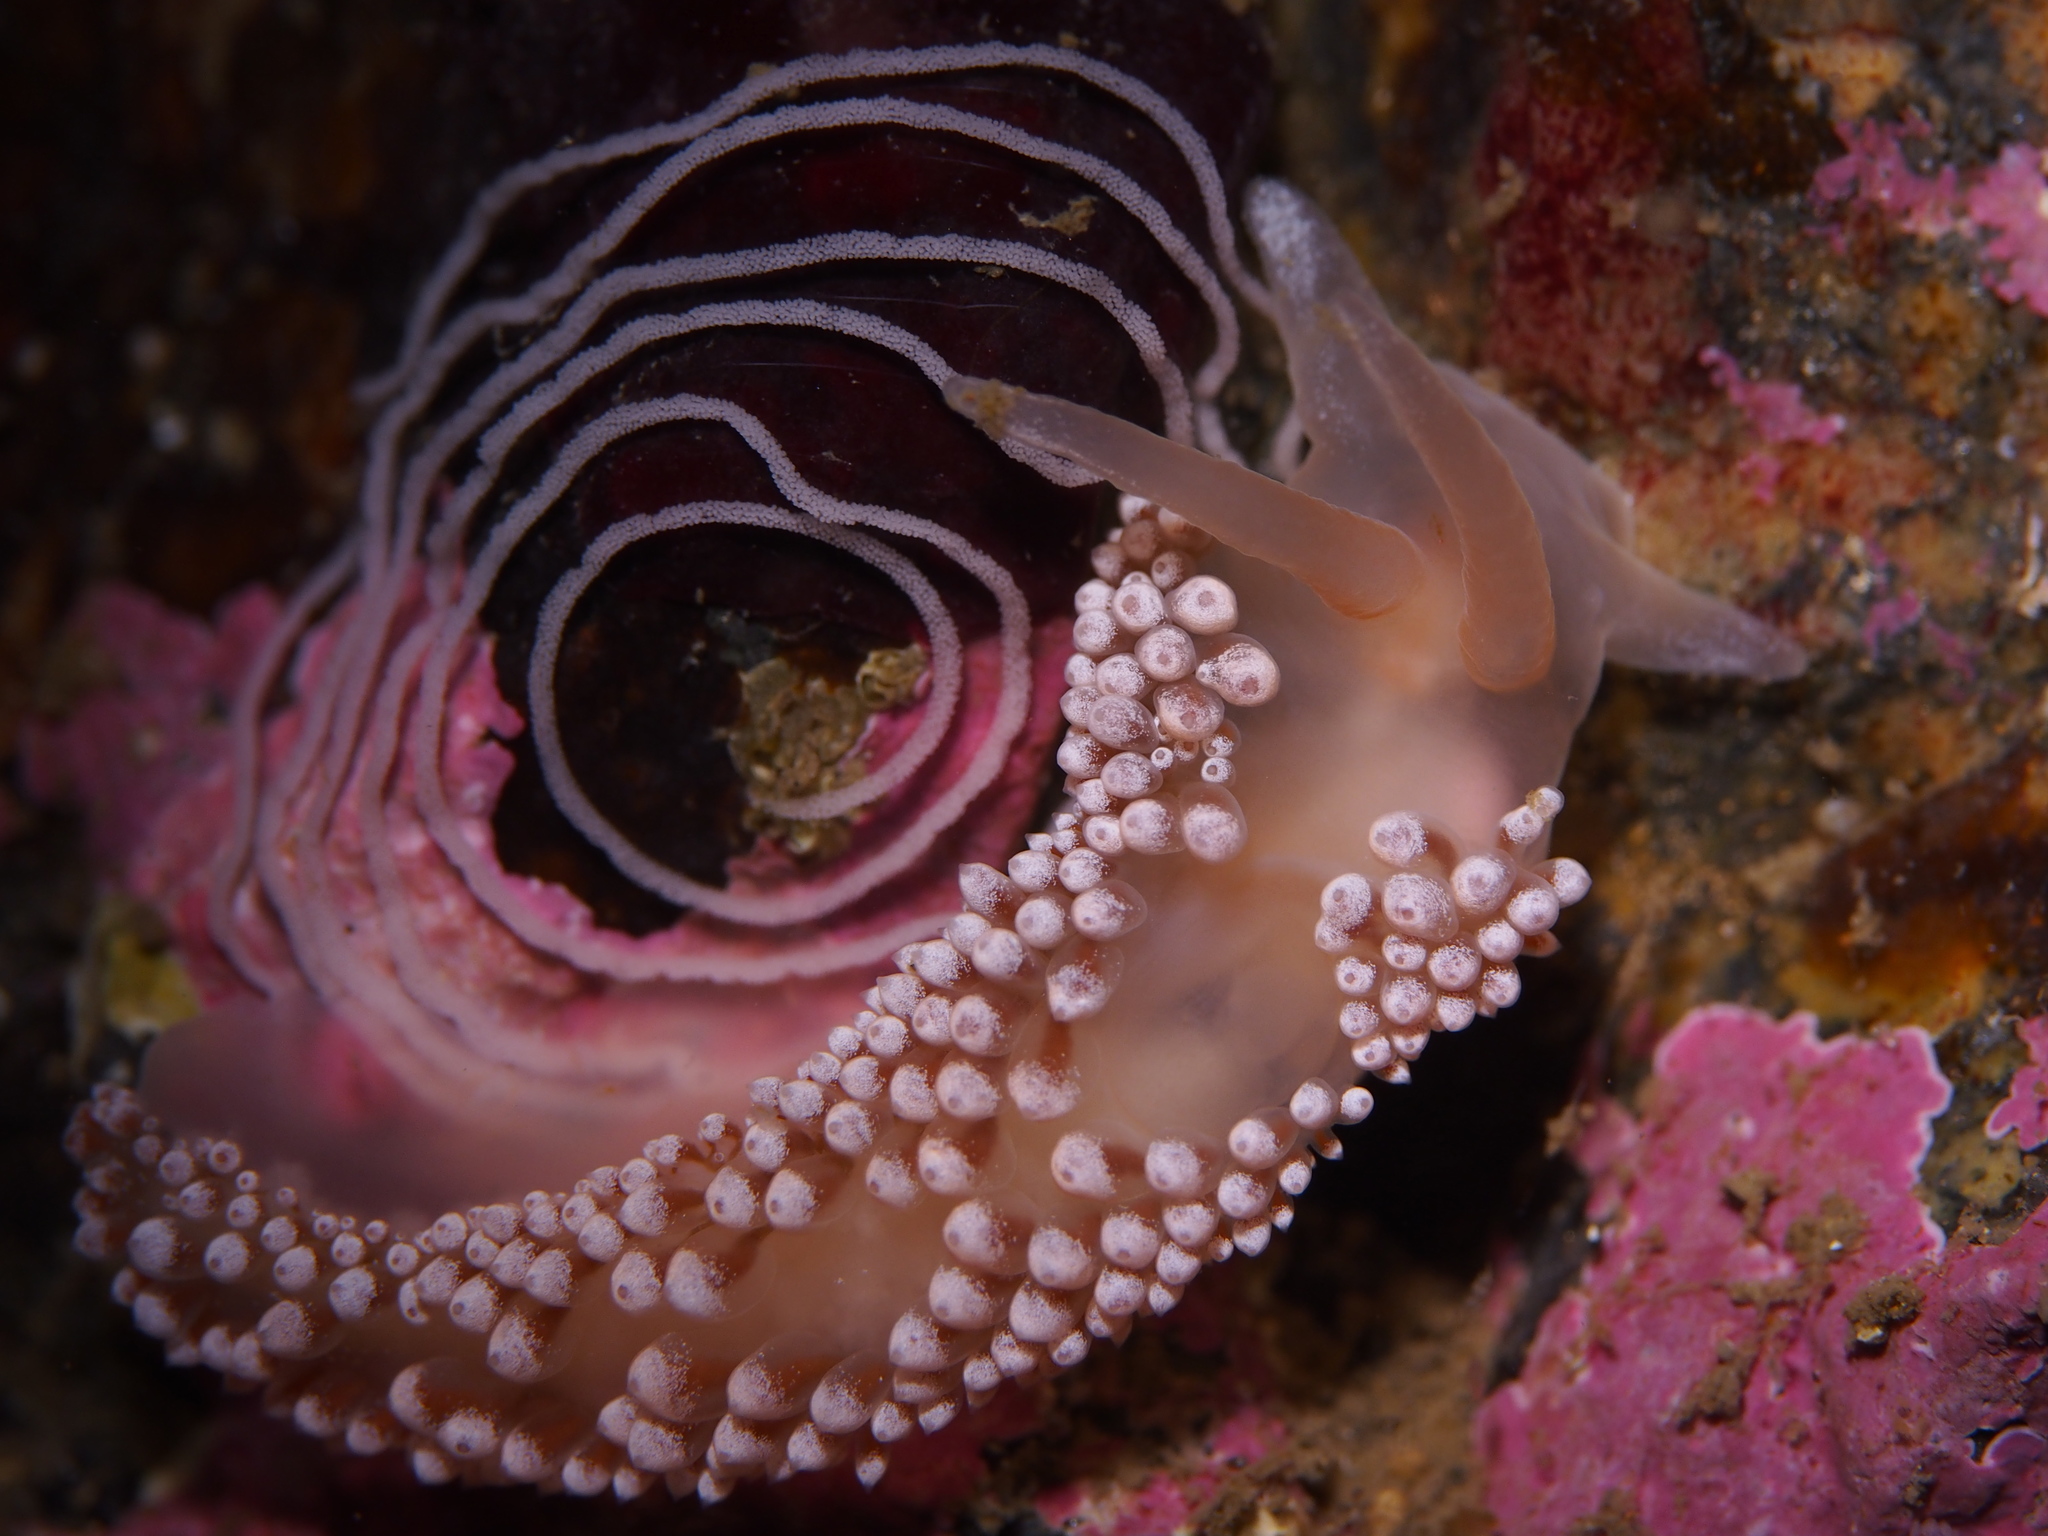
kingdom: Animalia
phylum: Mollusca
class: Gastropoda
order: Nudibranchia
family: Coryphellidae
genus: Coryphella
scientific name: Coryphella verrucosa
